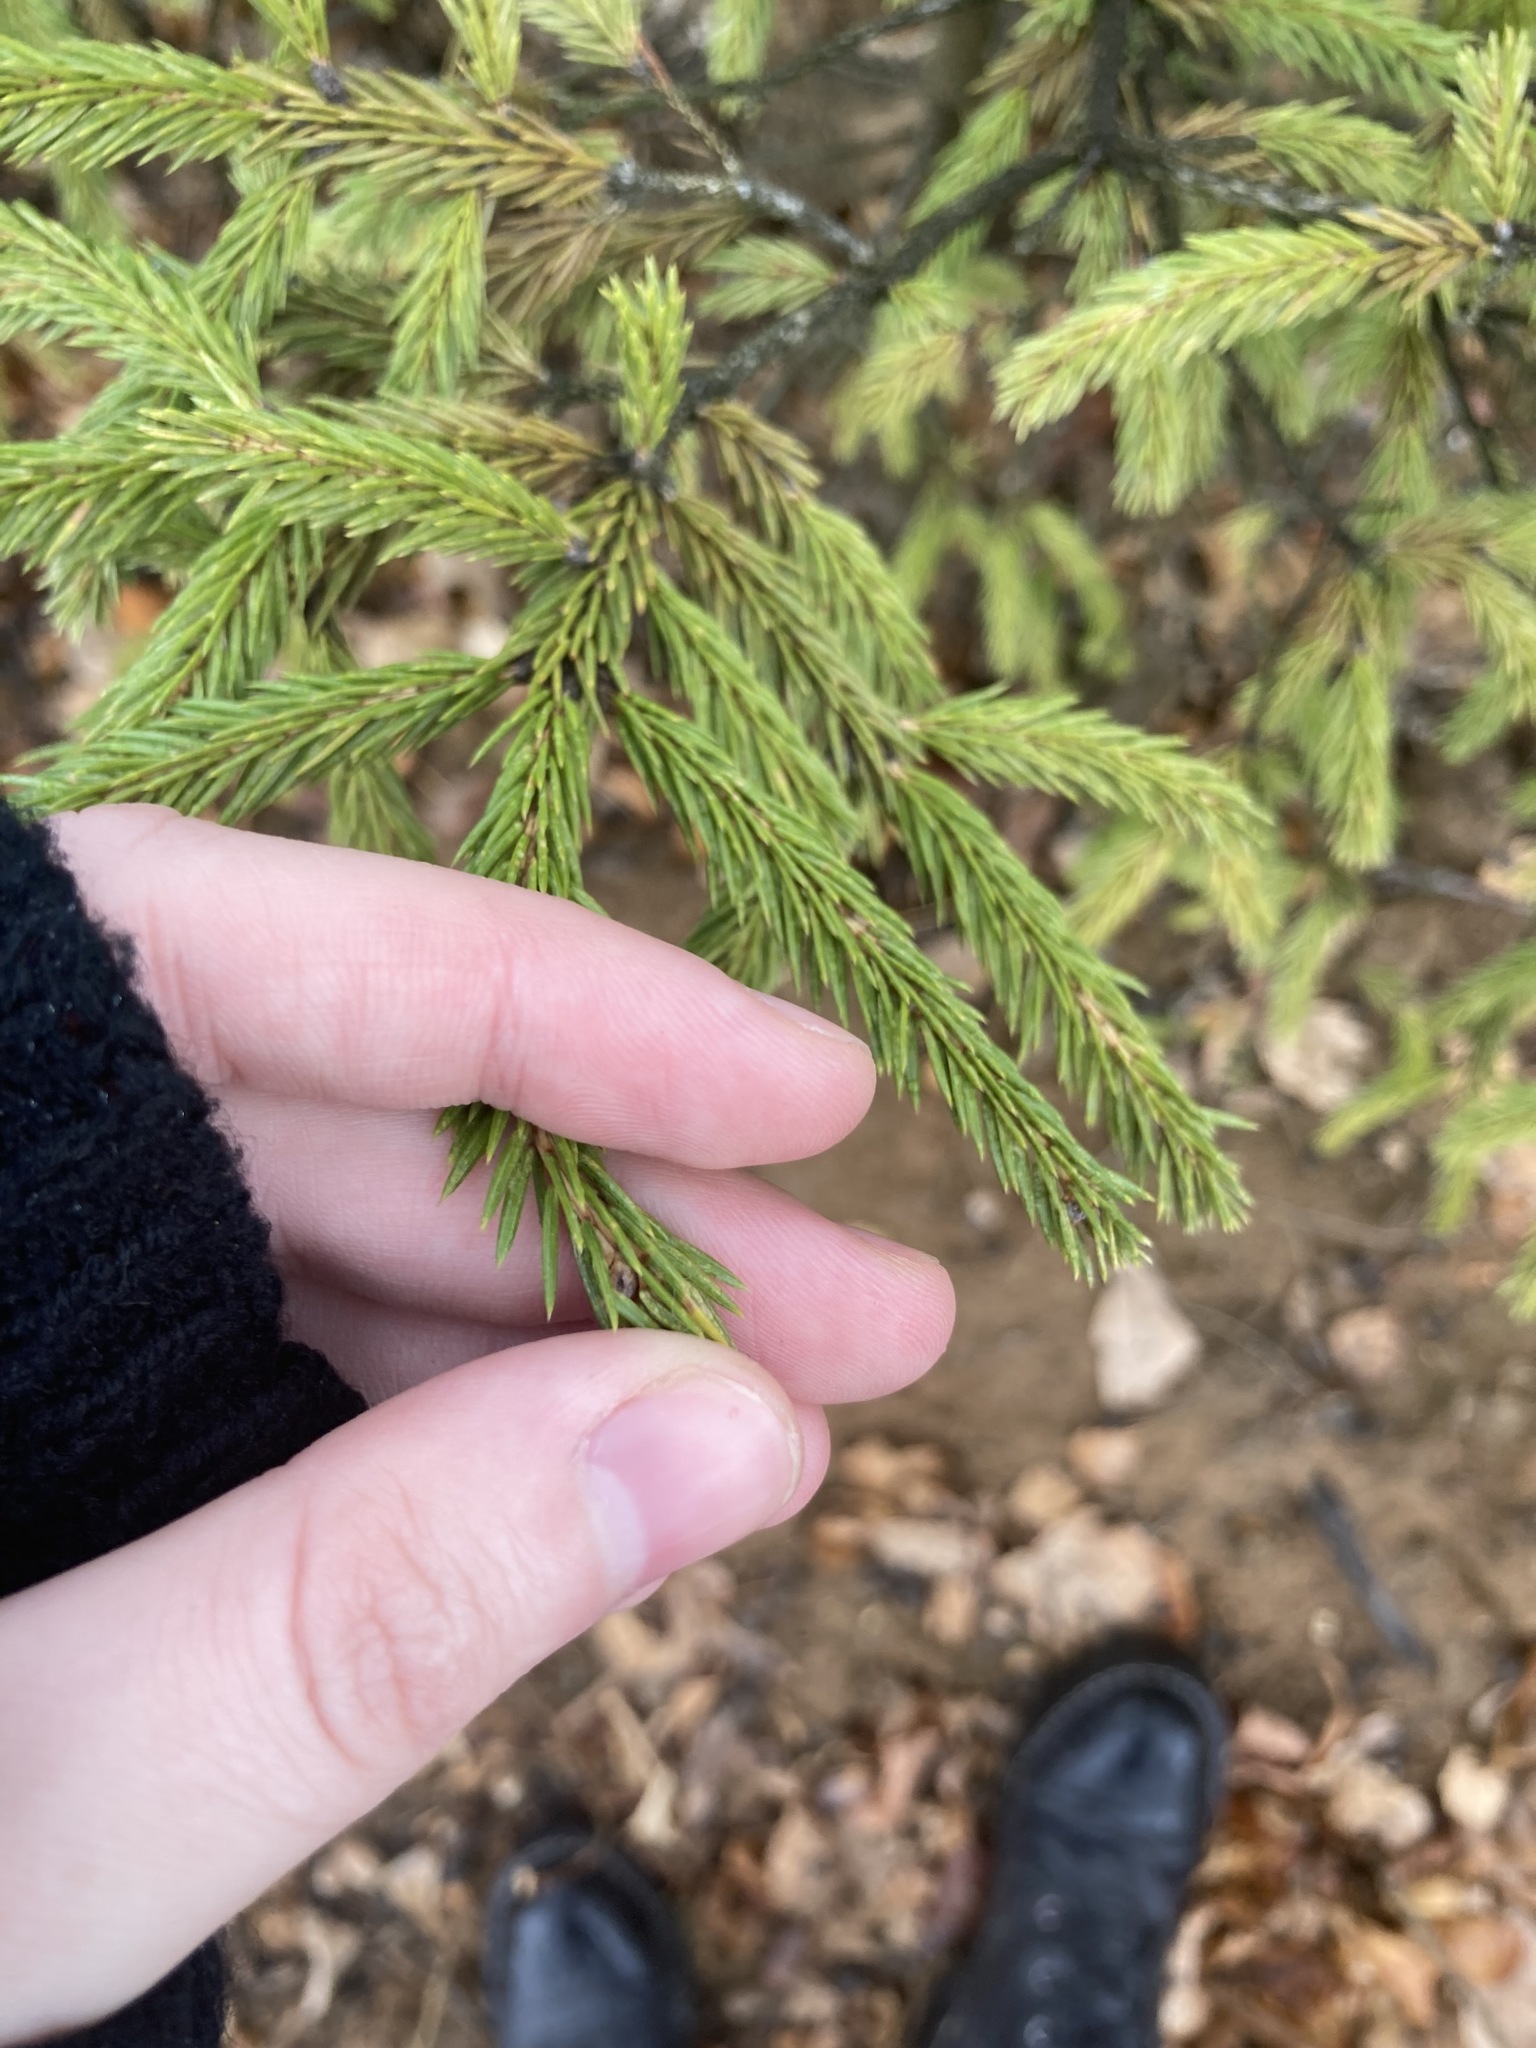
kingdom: Plantae
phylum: Tracheophyta
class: Pinopsida
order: Pinales
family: Pinaceae
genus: Picea
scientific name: Picea abies
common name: Norway spruce
